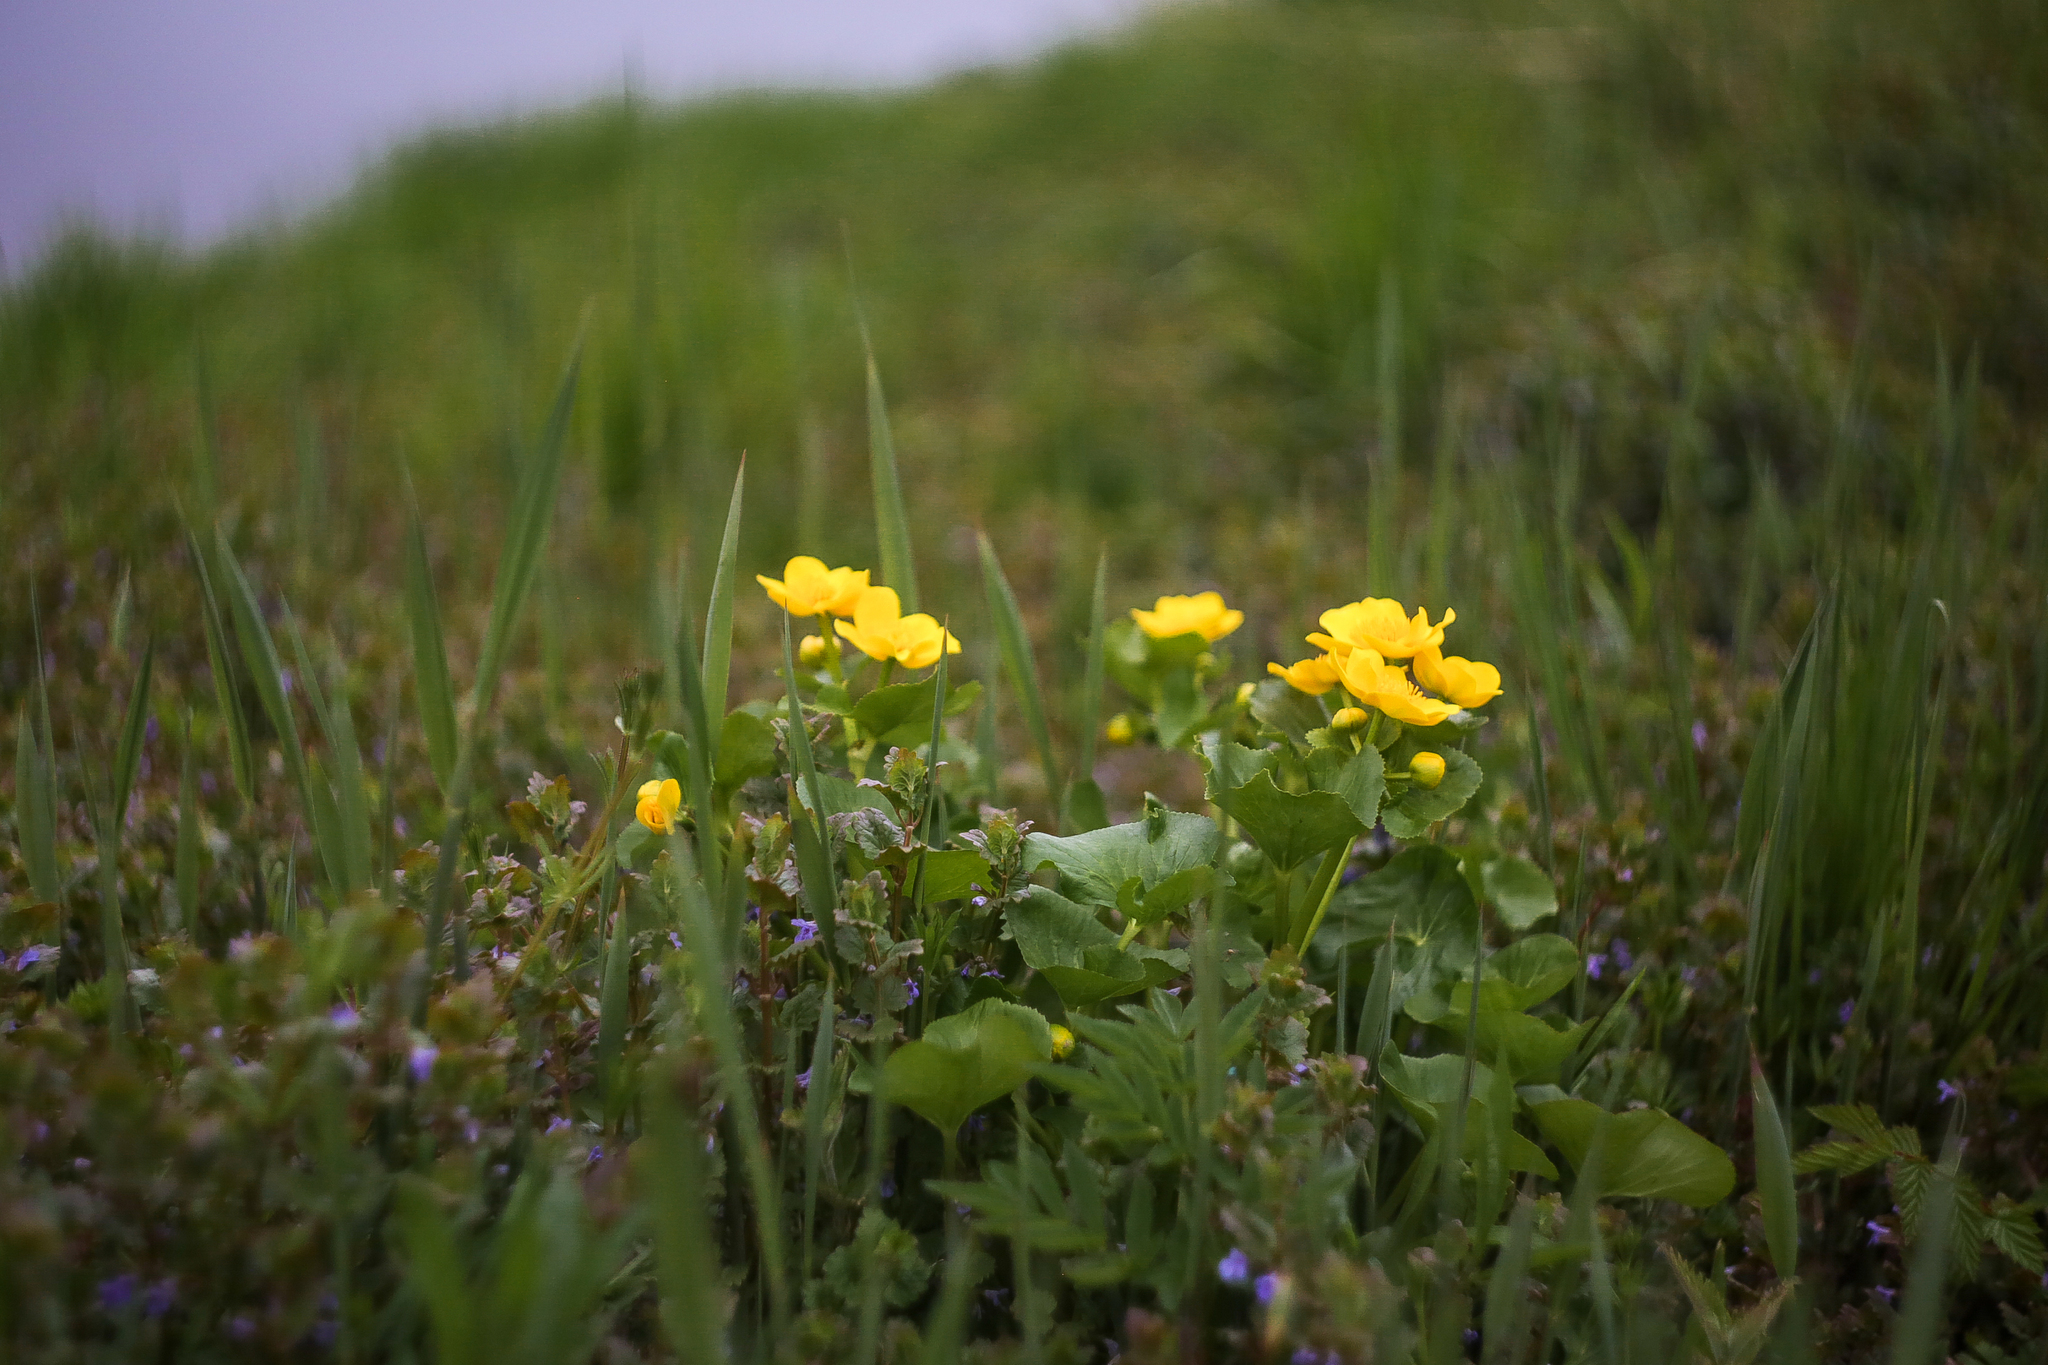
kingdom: Plantae
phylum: Tracheophyta
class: Magnoliopsida
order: Ranunculales
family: Ranunculaceae
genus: Caltha
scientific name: Caltha palustris
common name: Marsh marigold
